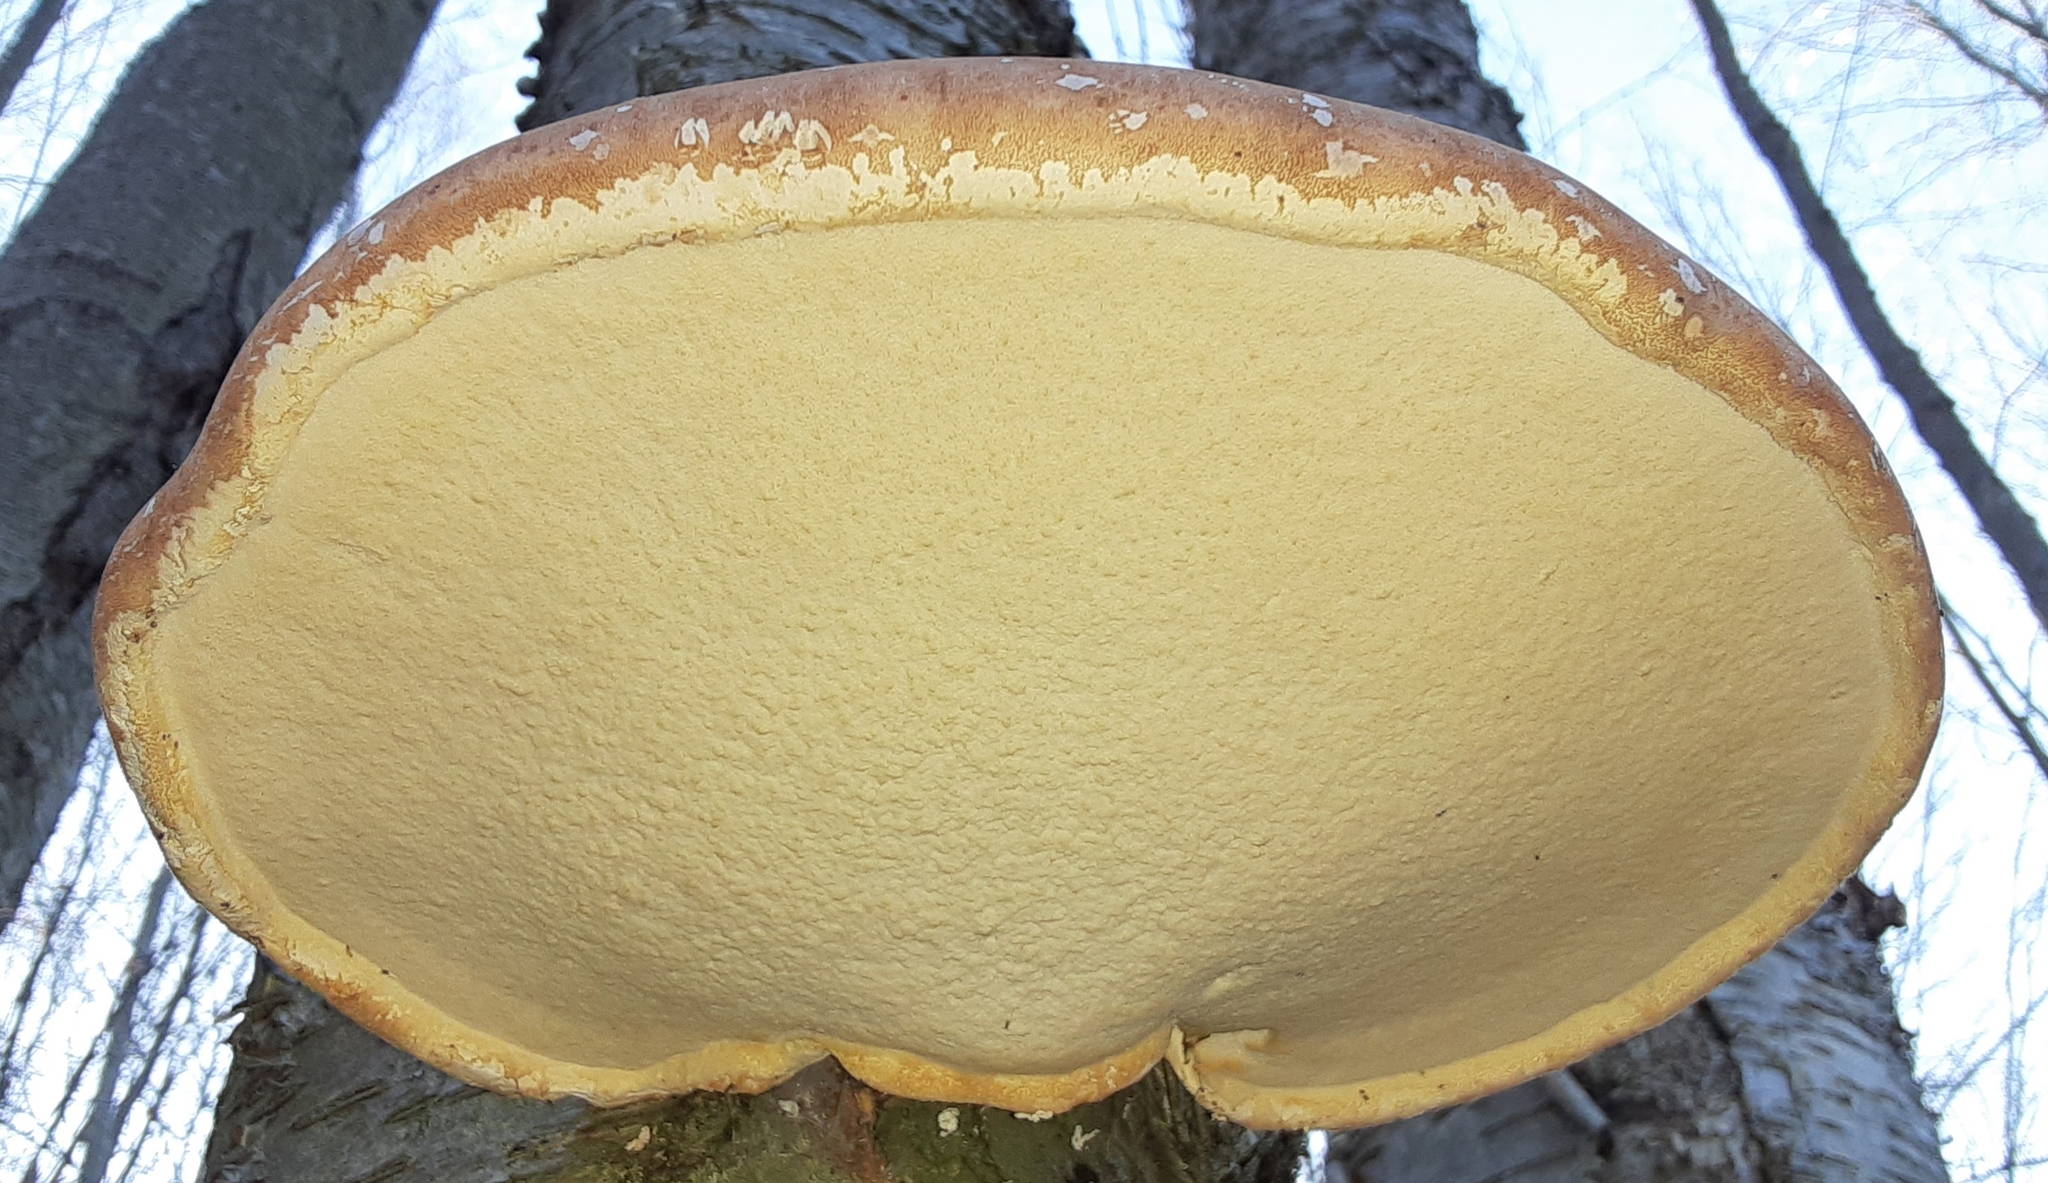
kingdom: Fungi
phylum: Basidiomycota
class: Agaricomycetes
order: Polyporales
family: Fomitopsidaceae
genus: Fomitopsis
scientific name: Fomitopsis betulina
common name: Birch polypore
